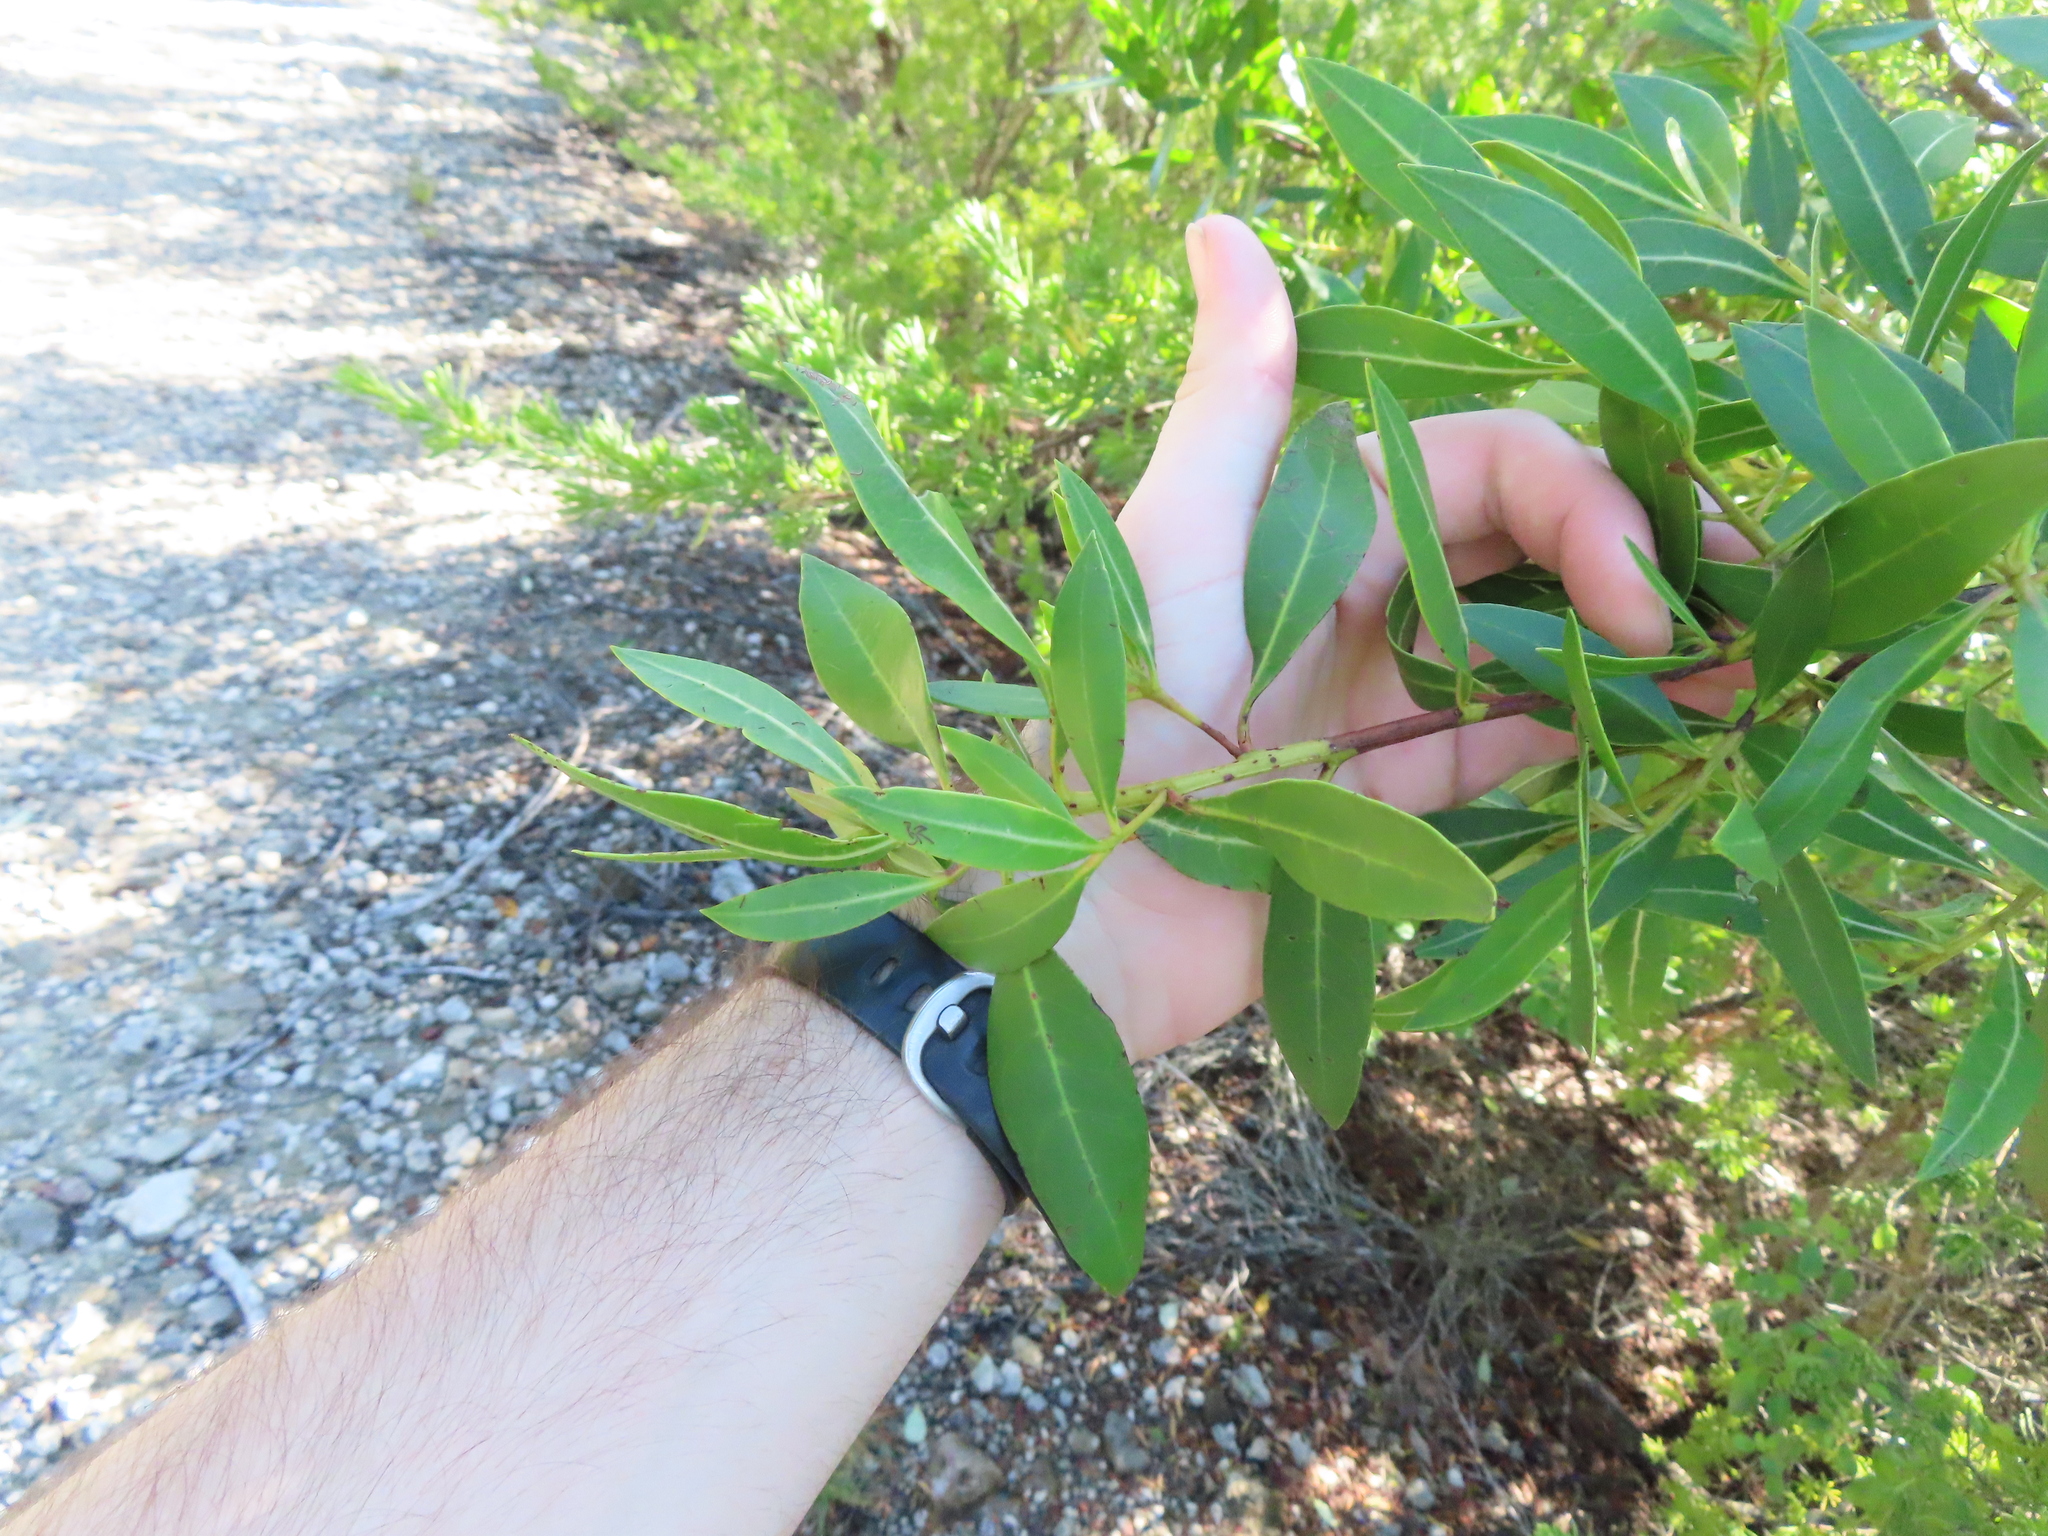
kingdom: Plantae
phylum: Tracheophyta
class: Magnoliopsida
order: Myrtales
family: Combretaceae
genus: Conocarpus
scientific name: Conocarpus erectus
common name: Button mangrove
